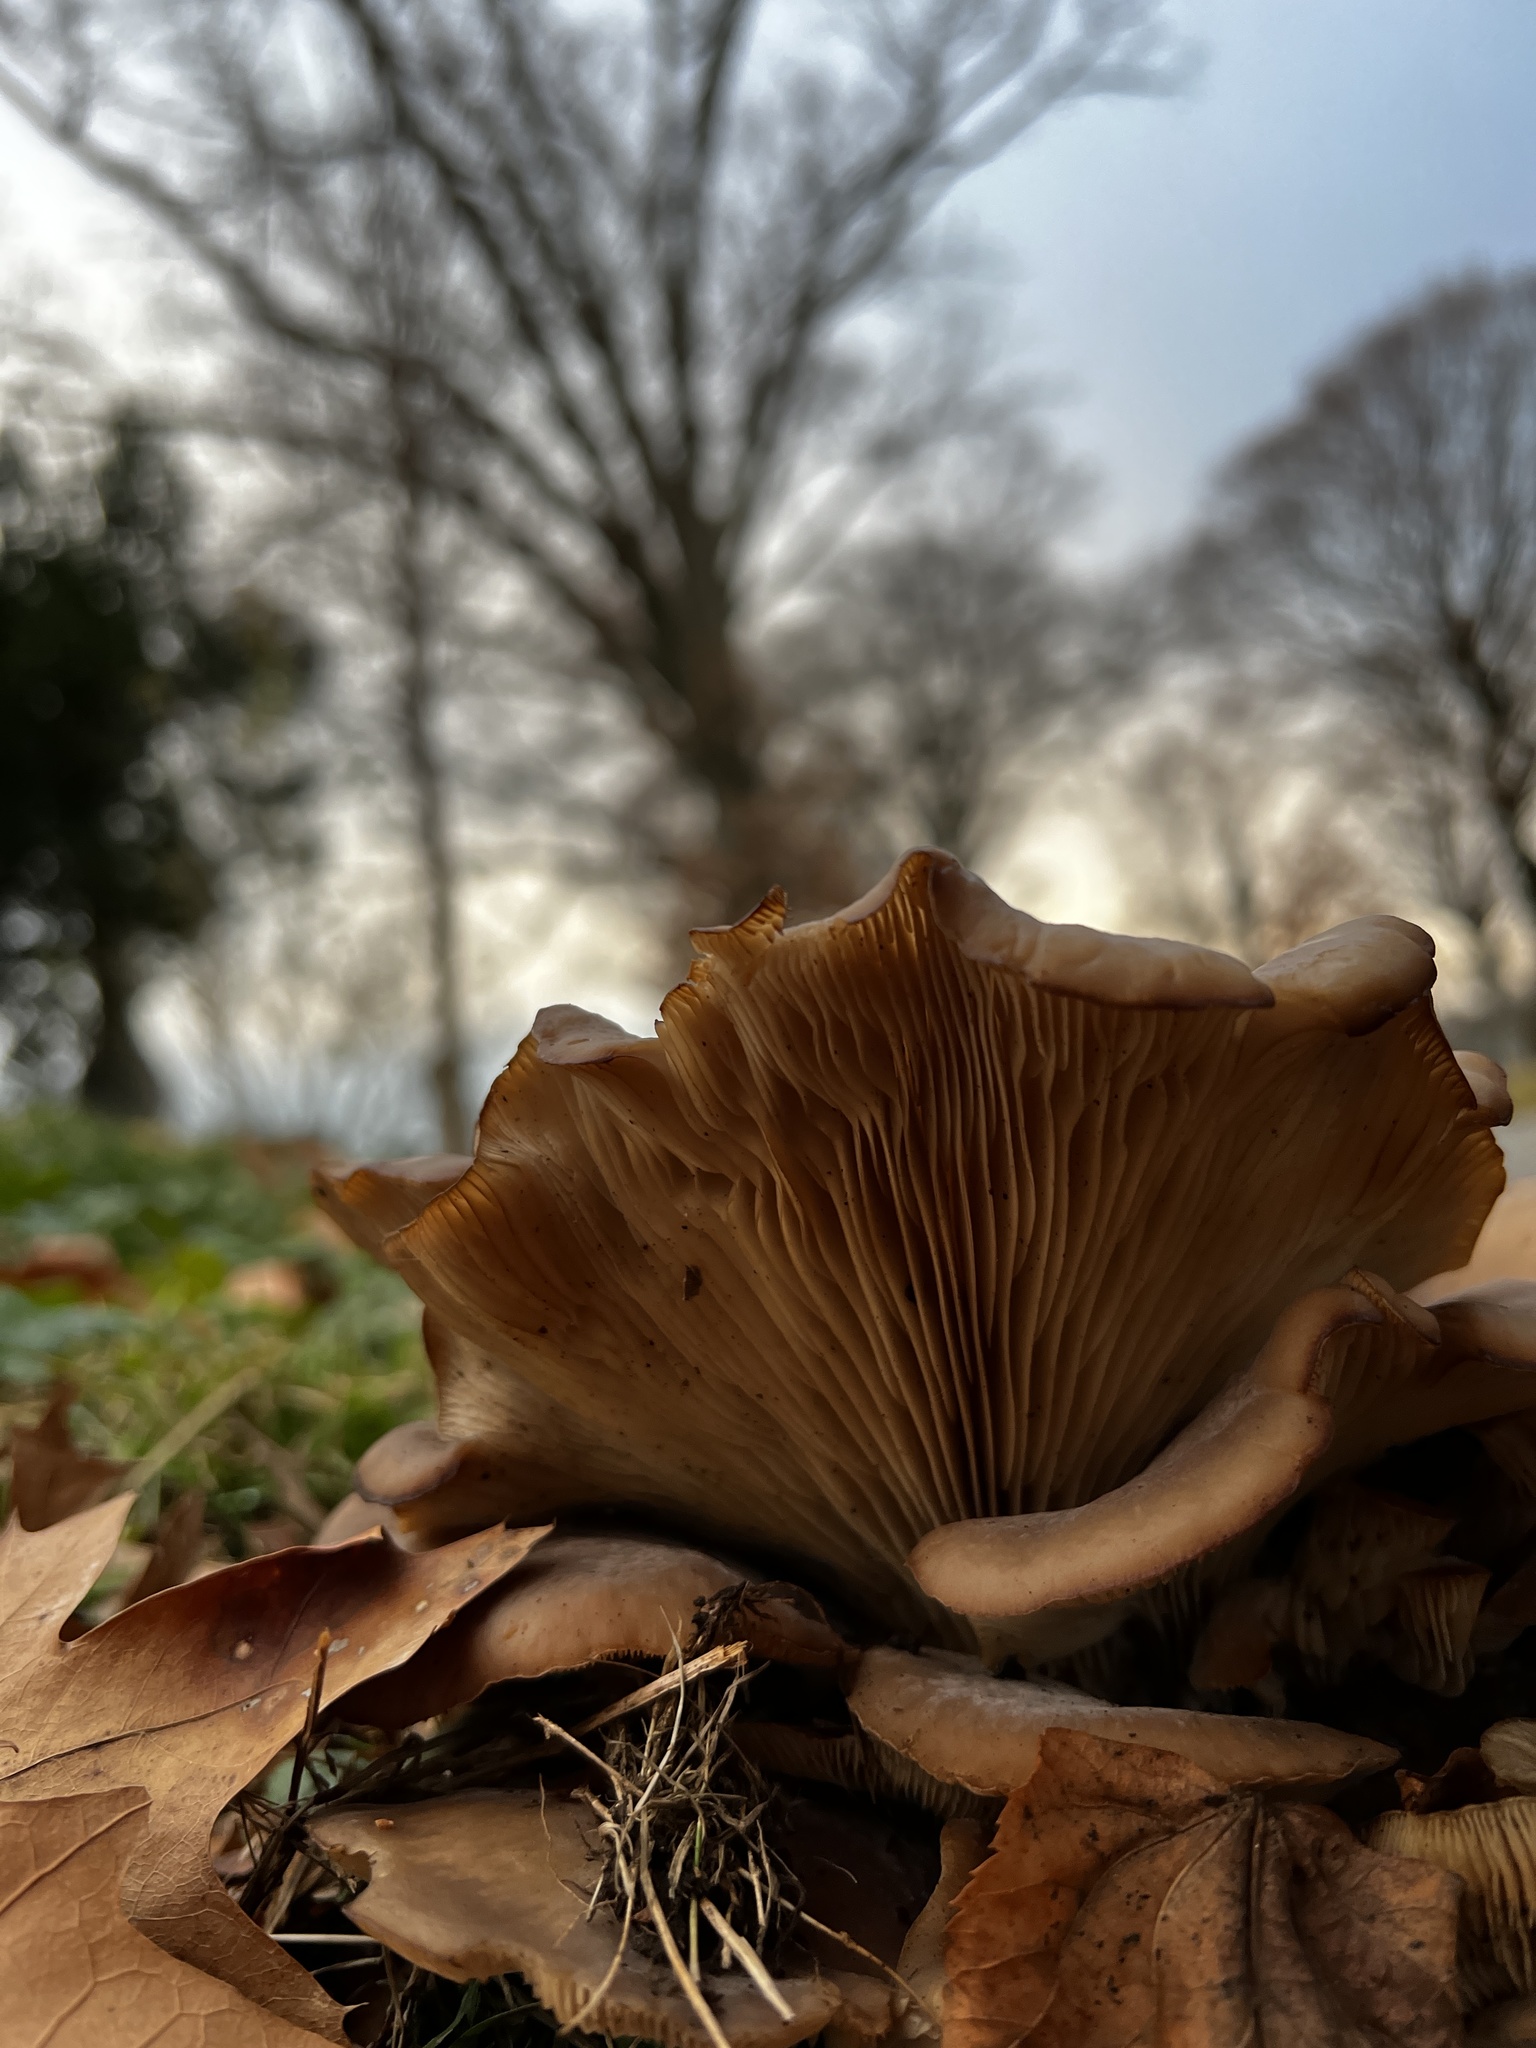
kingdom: Fungi
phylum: Basidiomycota
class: Agaricomycetes
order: Agaricales
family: Pleurotaceae
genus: Pleurotus
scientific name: Pleurotus ostreatus
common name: Oyster mushroom
